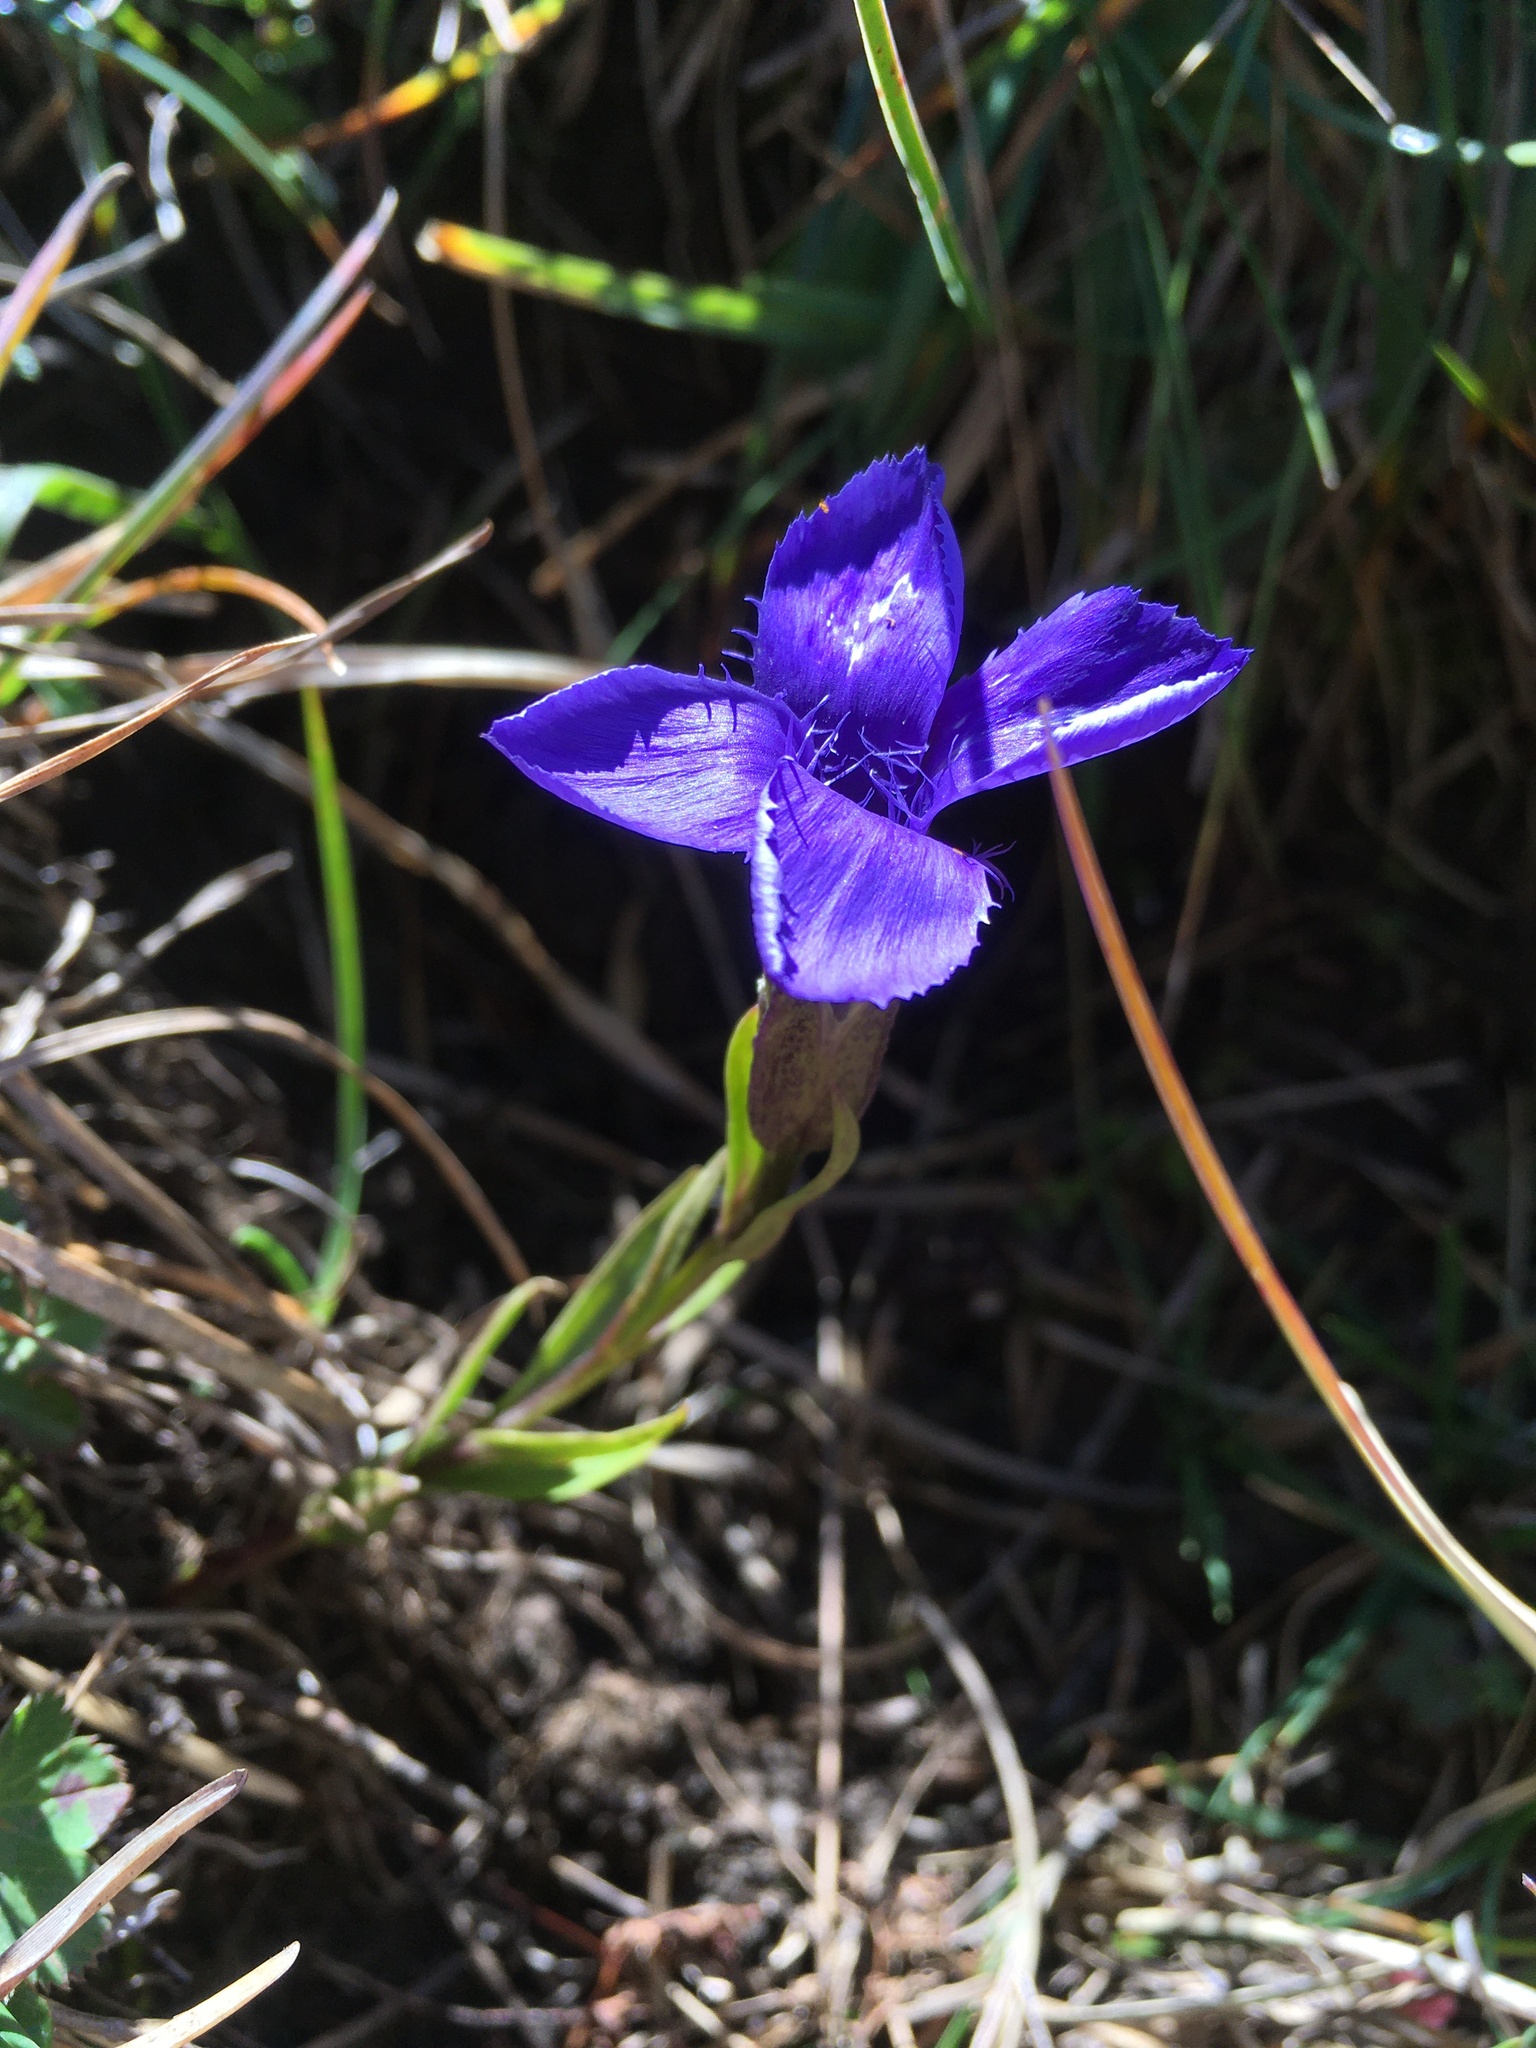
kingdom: Plantae
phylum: Tracheophyta
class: Magnoliopsida
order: Gentianales
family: Gentianaceae
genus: Gentianopsis
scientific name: Gentianopsis ciliata
